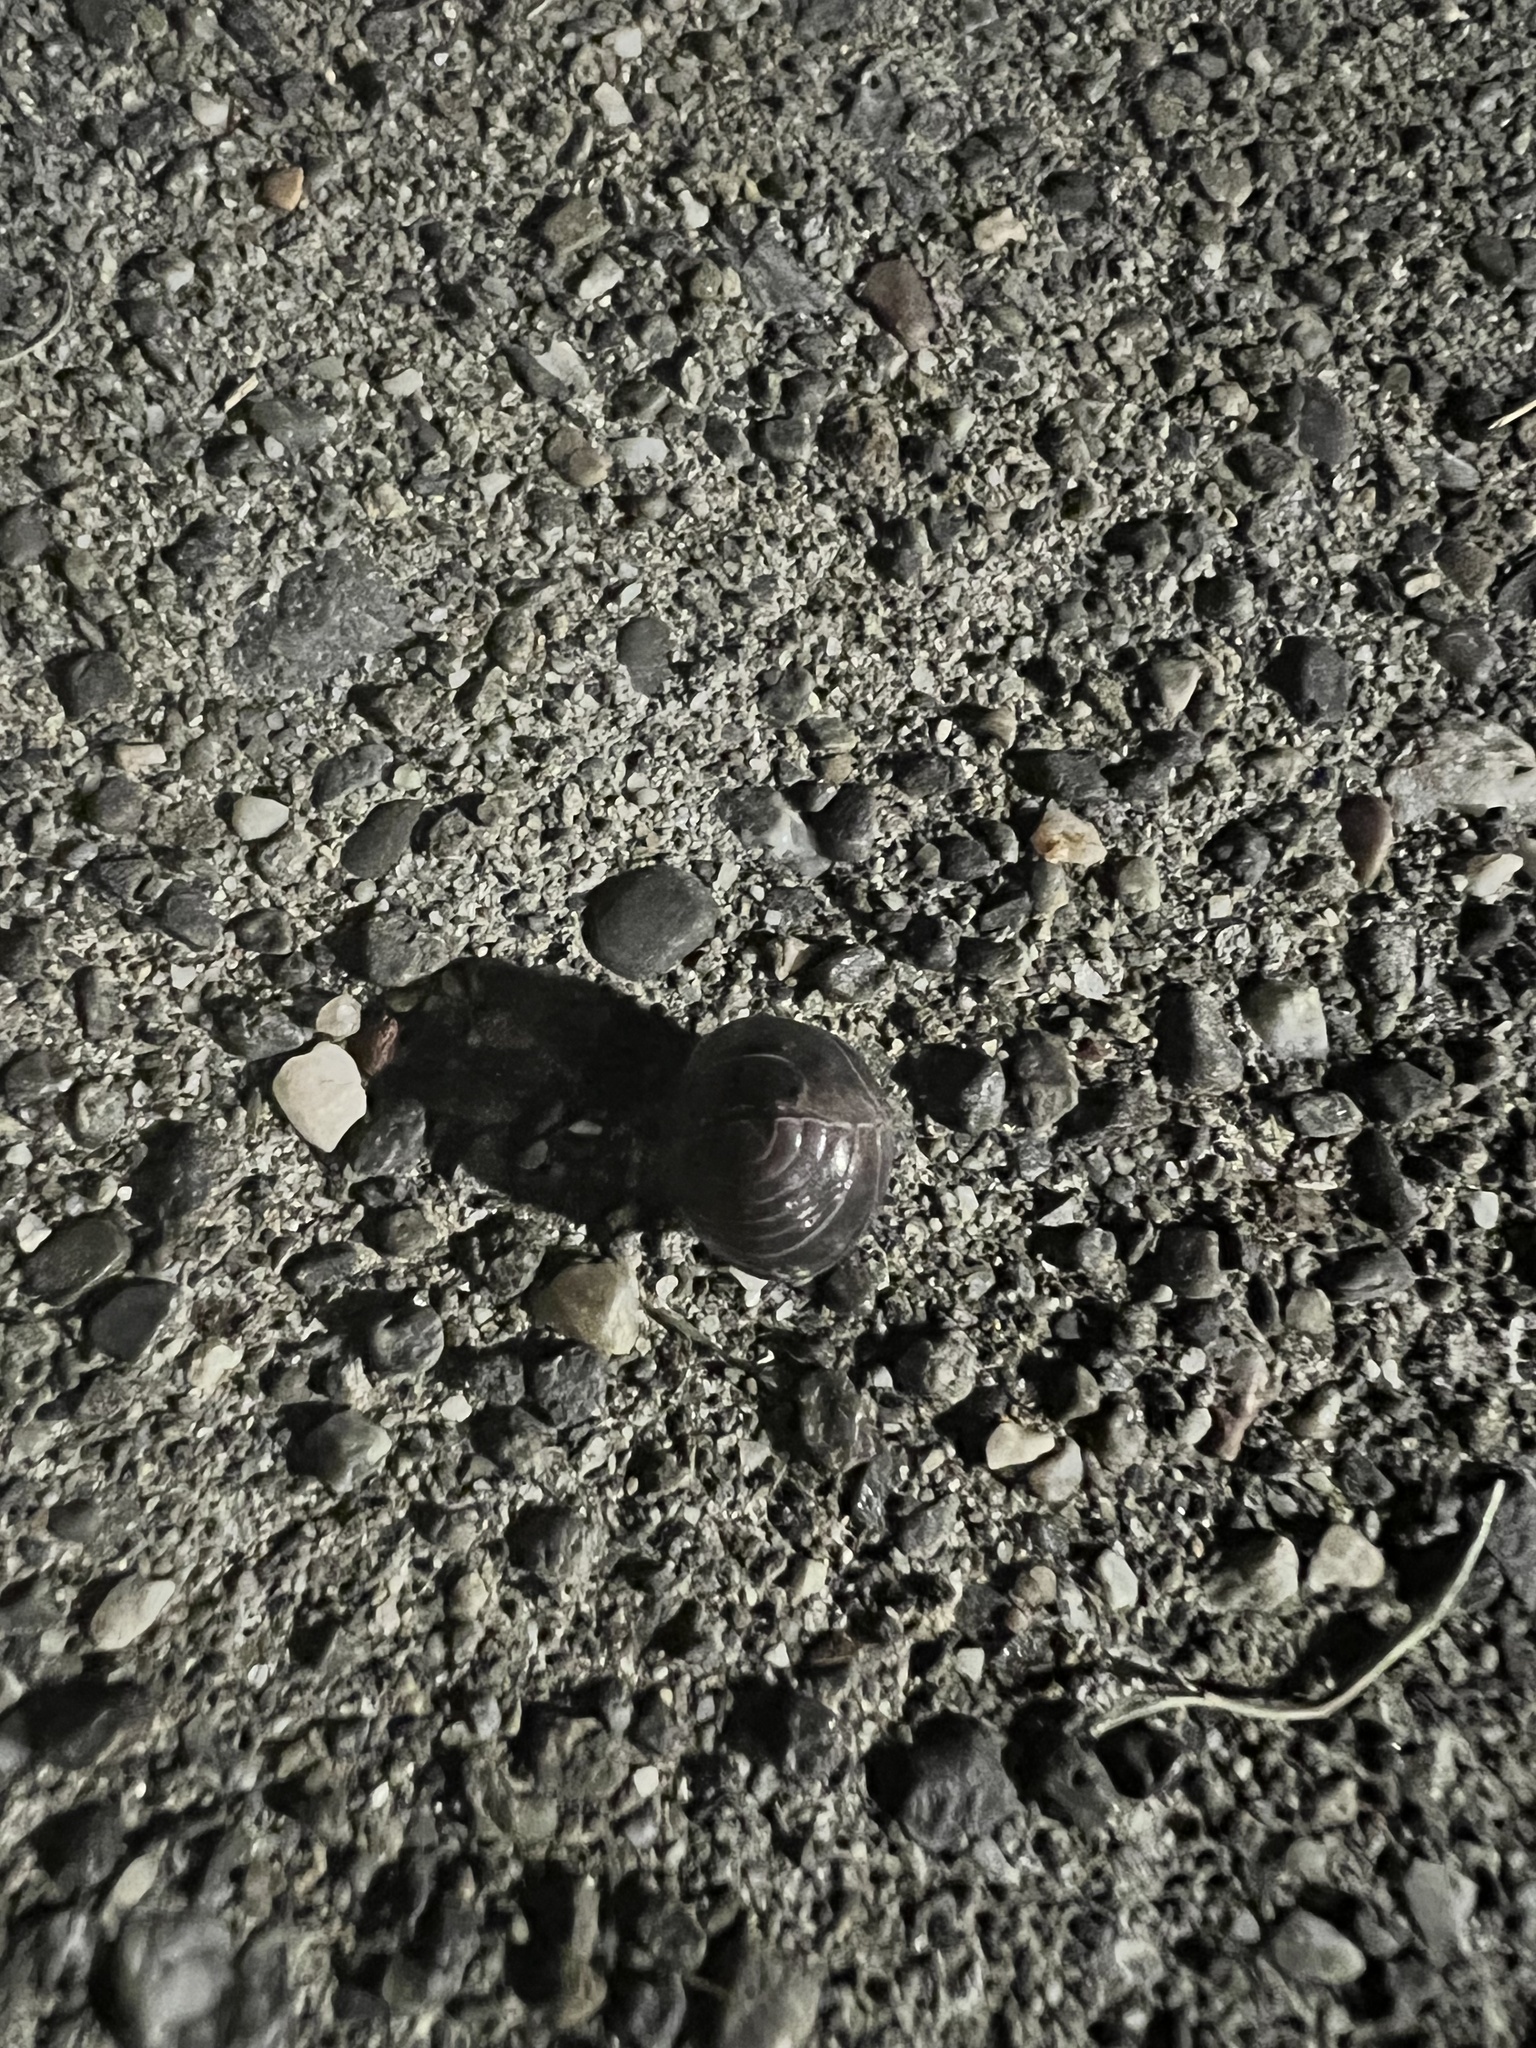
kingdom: Animalia
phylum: Arthropoda
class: Malacostraca
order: Isopoda
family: Armadillidiidae
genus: Armadillidium
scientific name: Armadillidium vulgare
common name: Common pill woodlouse
